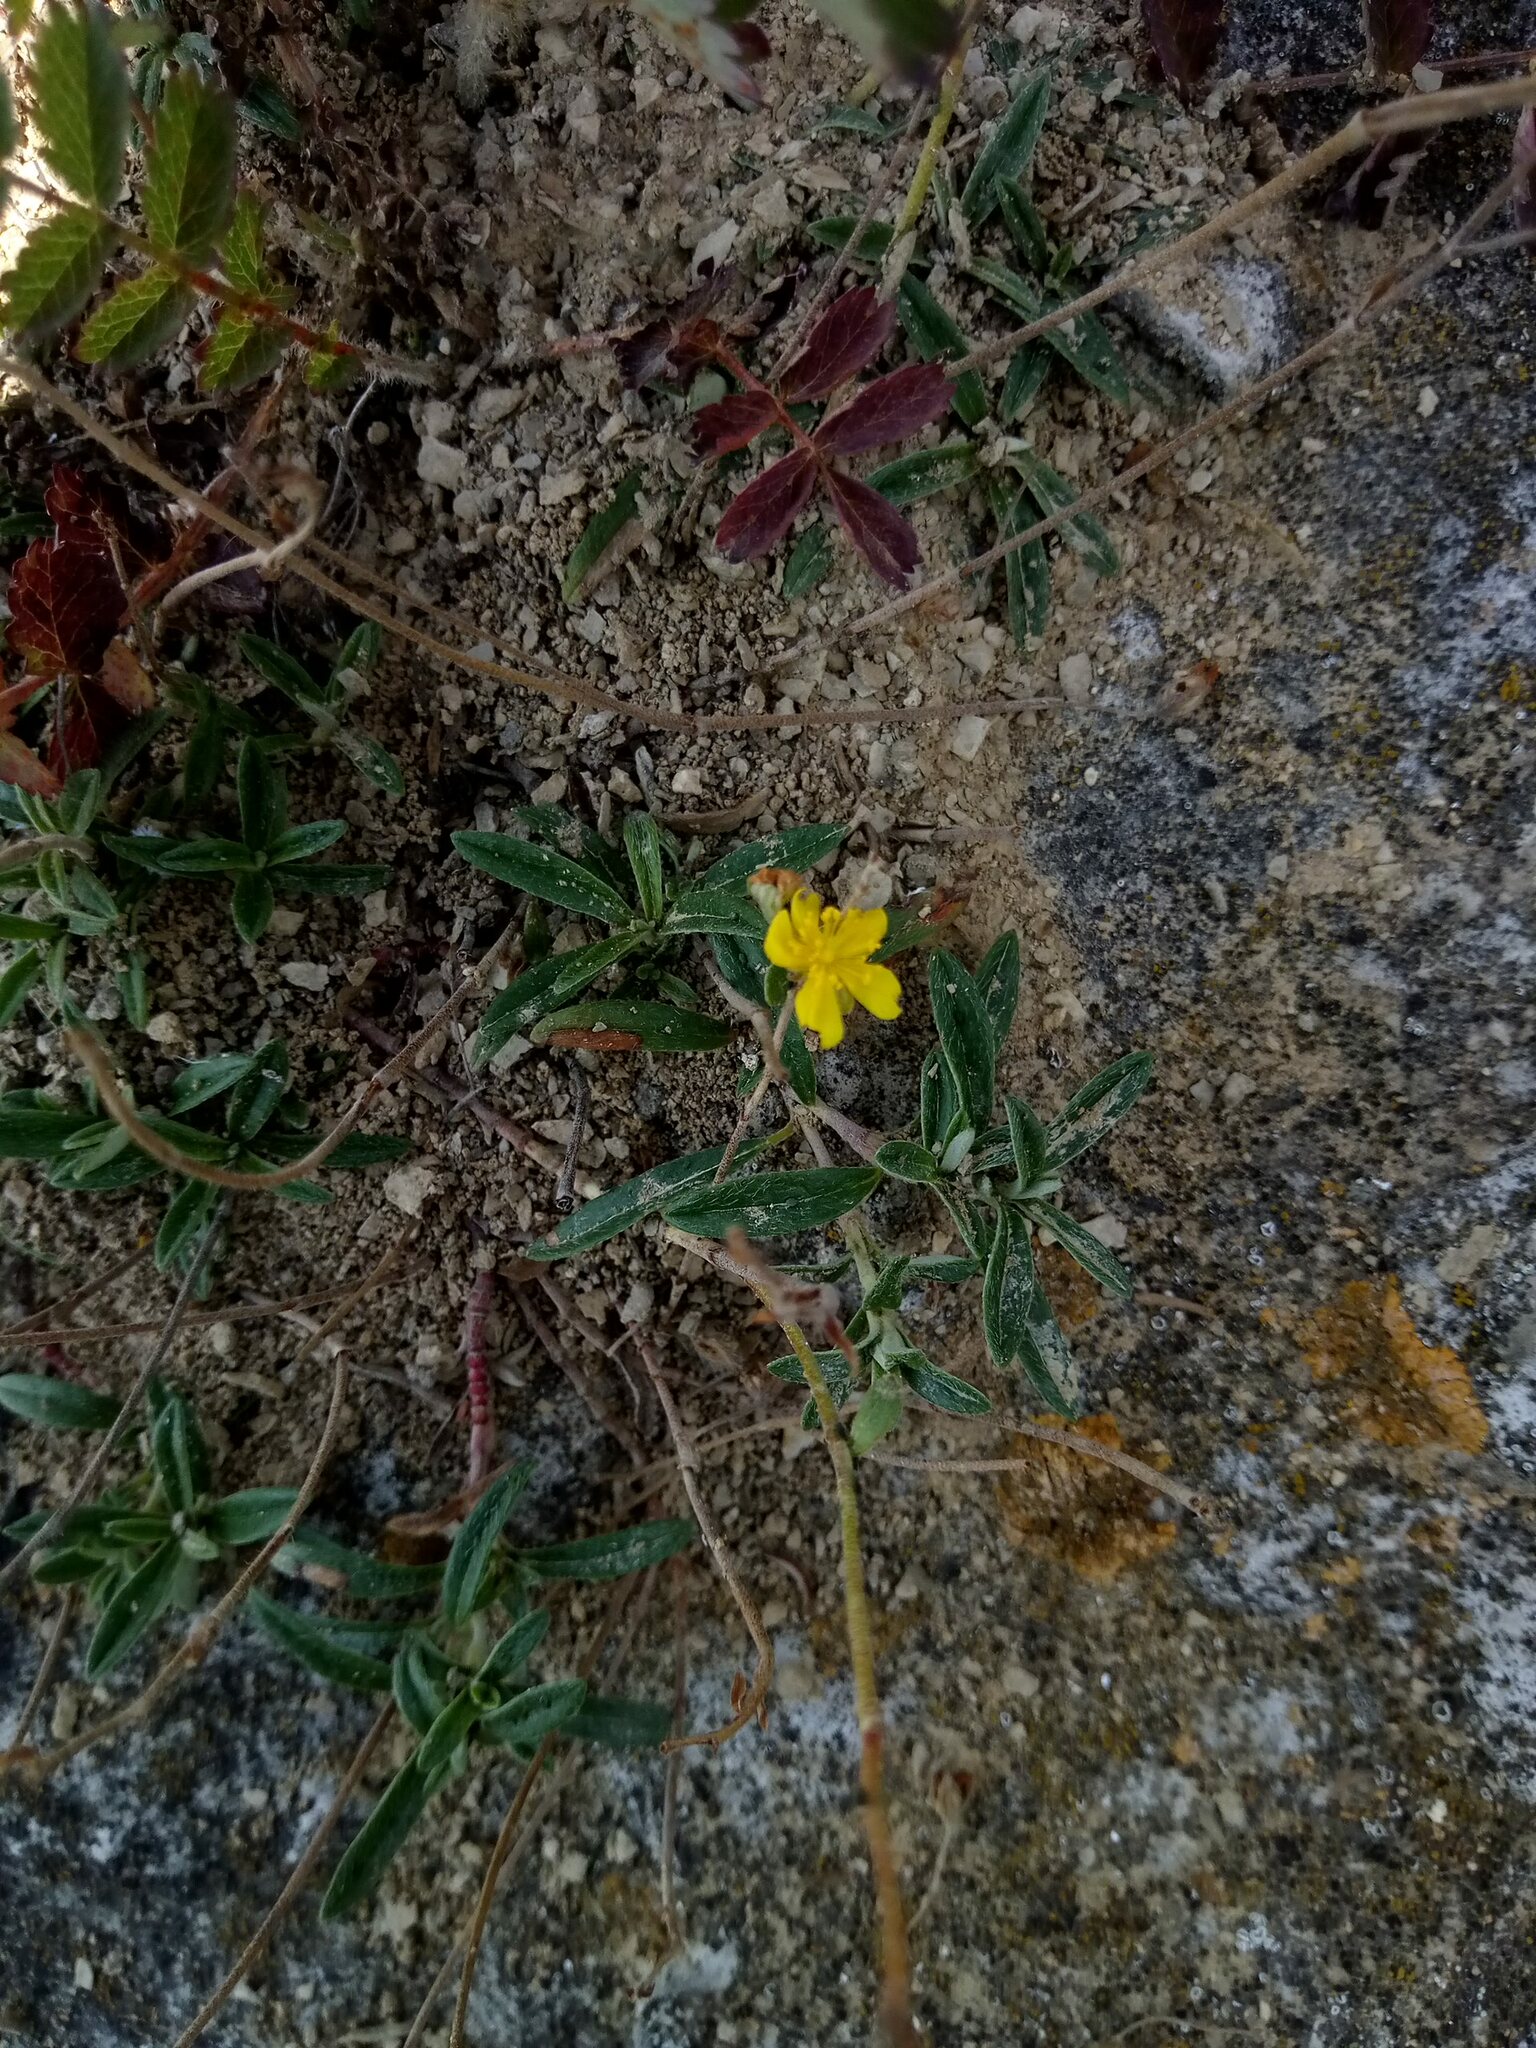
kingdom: Plantae
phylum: Tracheophyta
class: Magnoliopsida
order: Malvales
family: Cistaceae
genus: Helianthemum
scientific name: Helianthemum oelandicum
